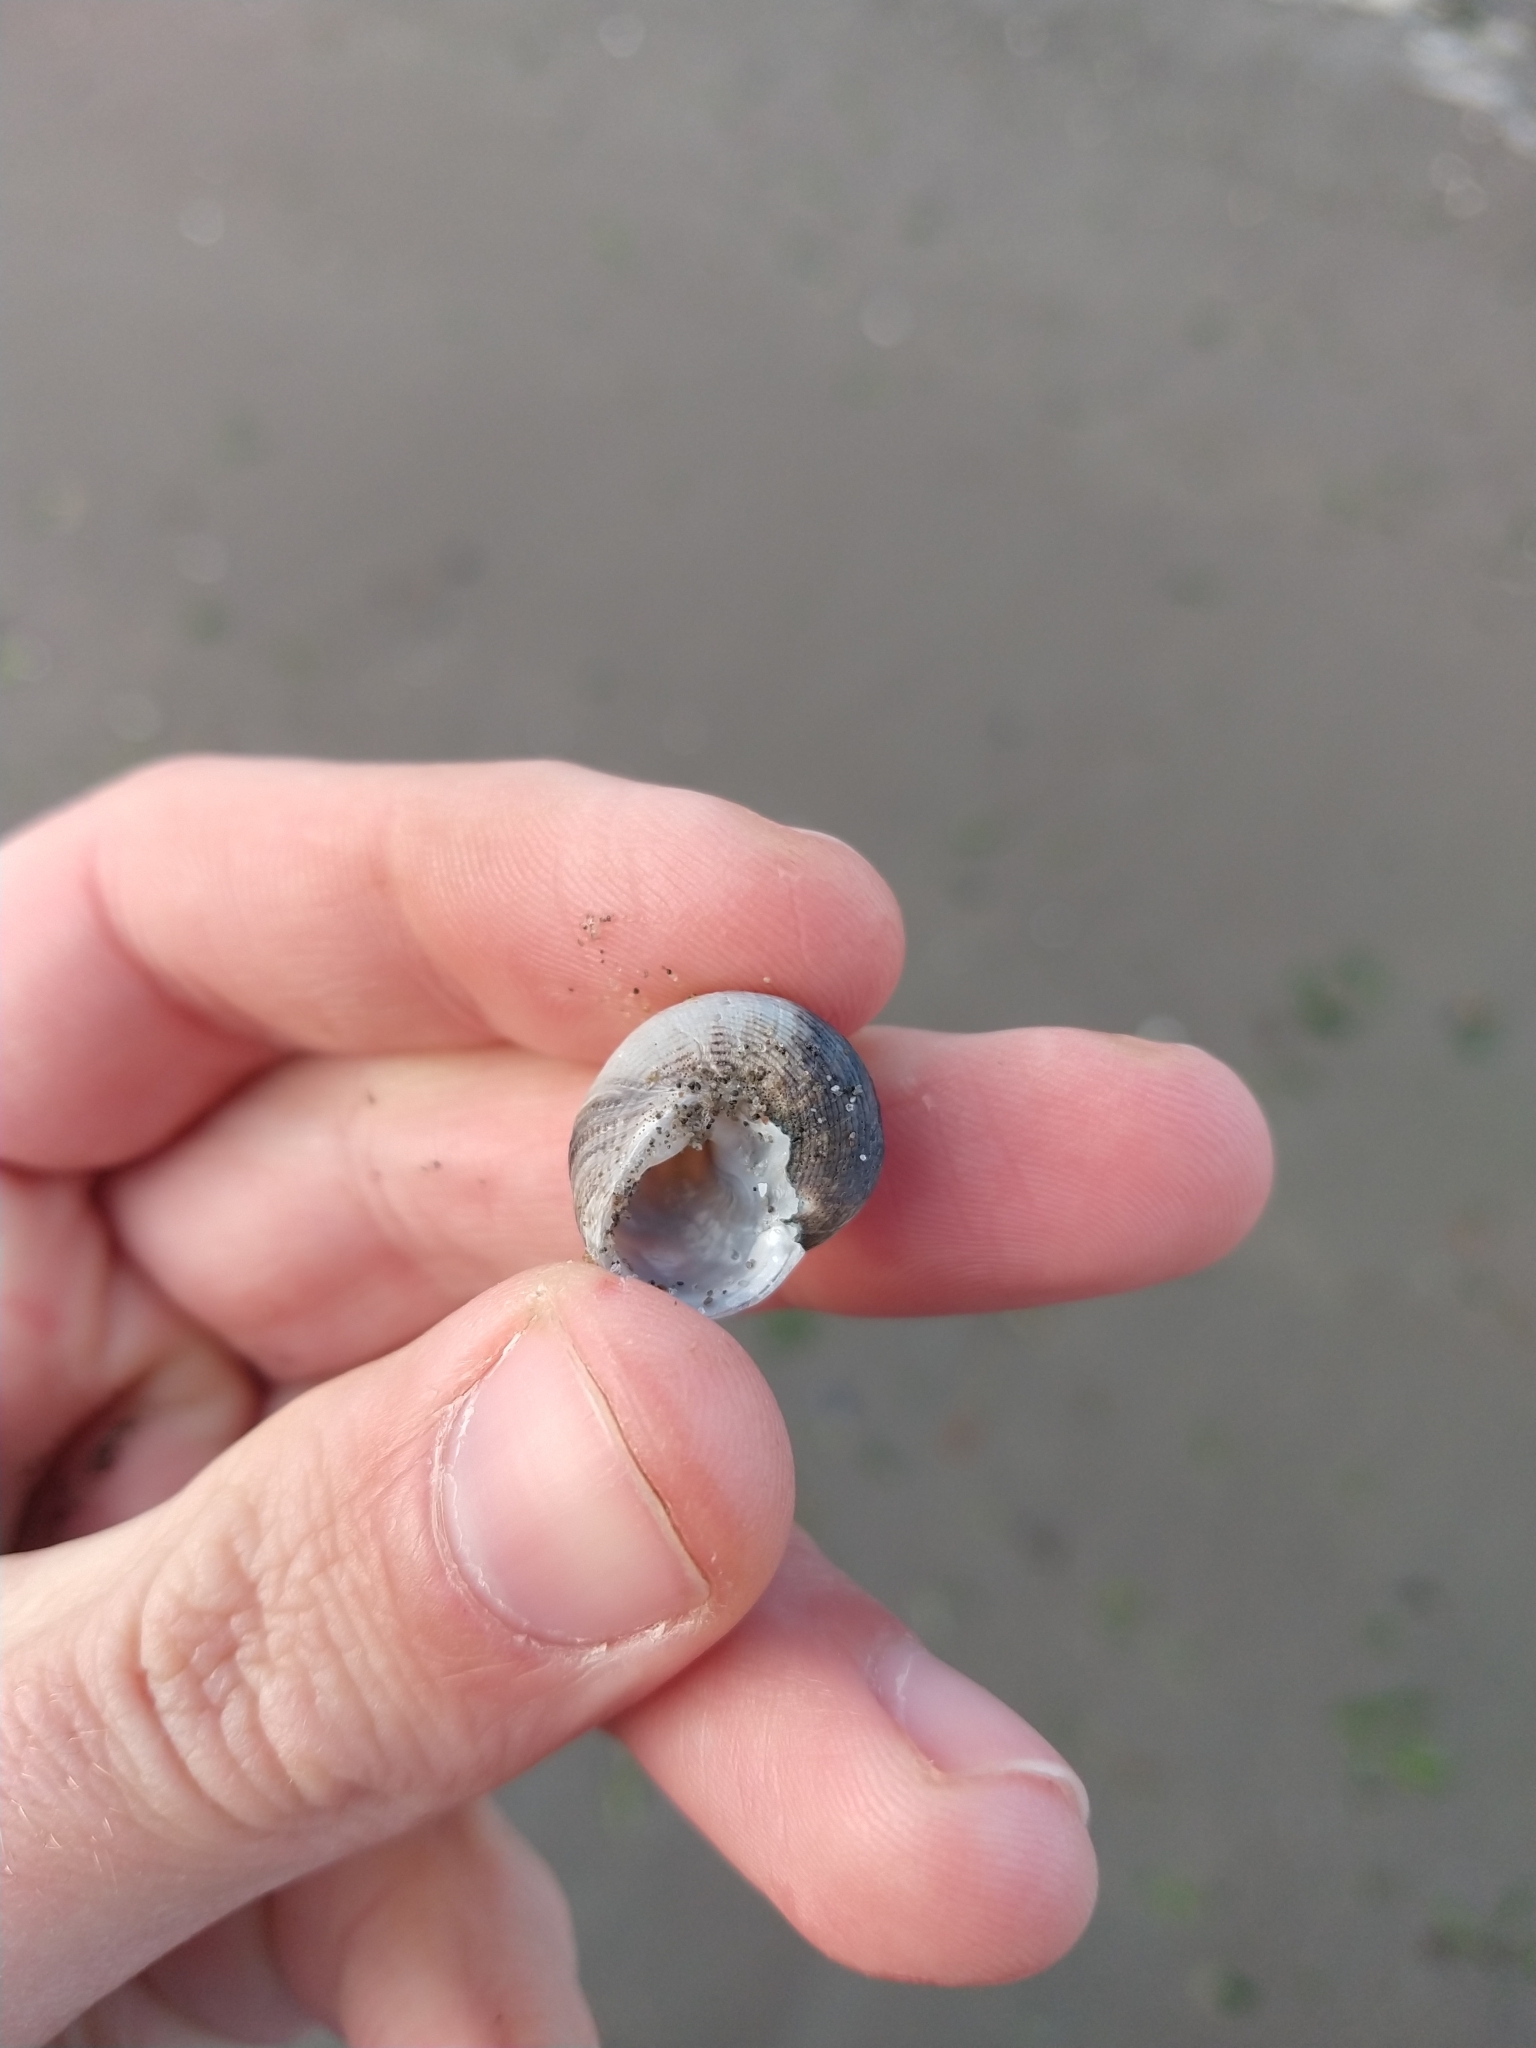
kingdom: Animalia
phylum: Mollusca
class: Gastropoda
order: Trochida
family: Tegulidae
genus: Tegula
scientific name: Tegula patagonica
